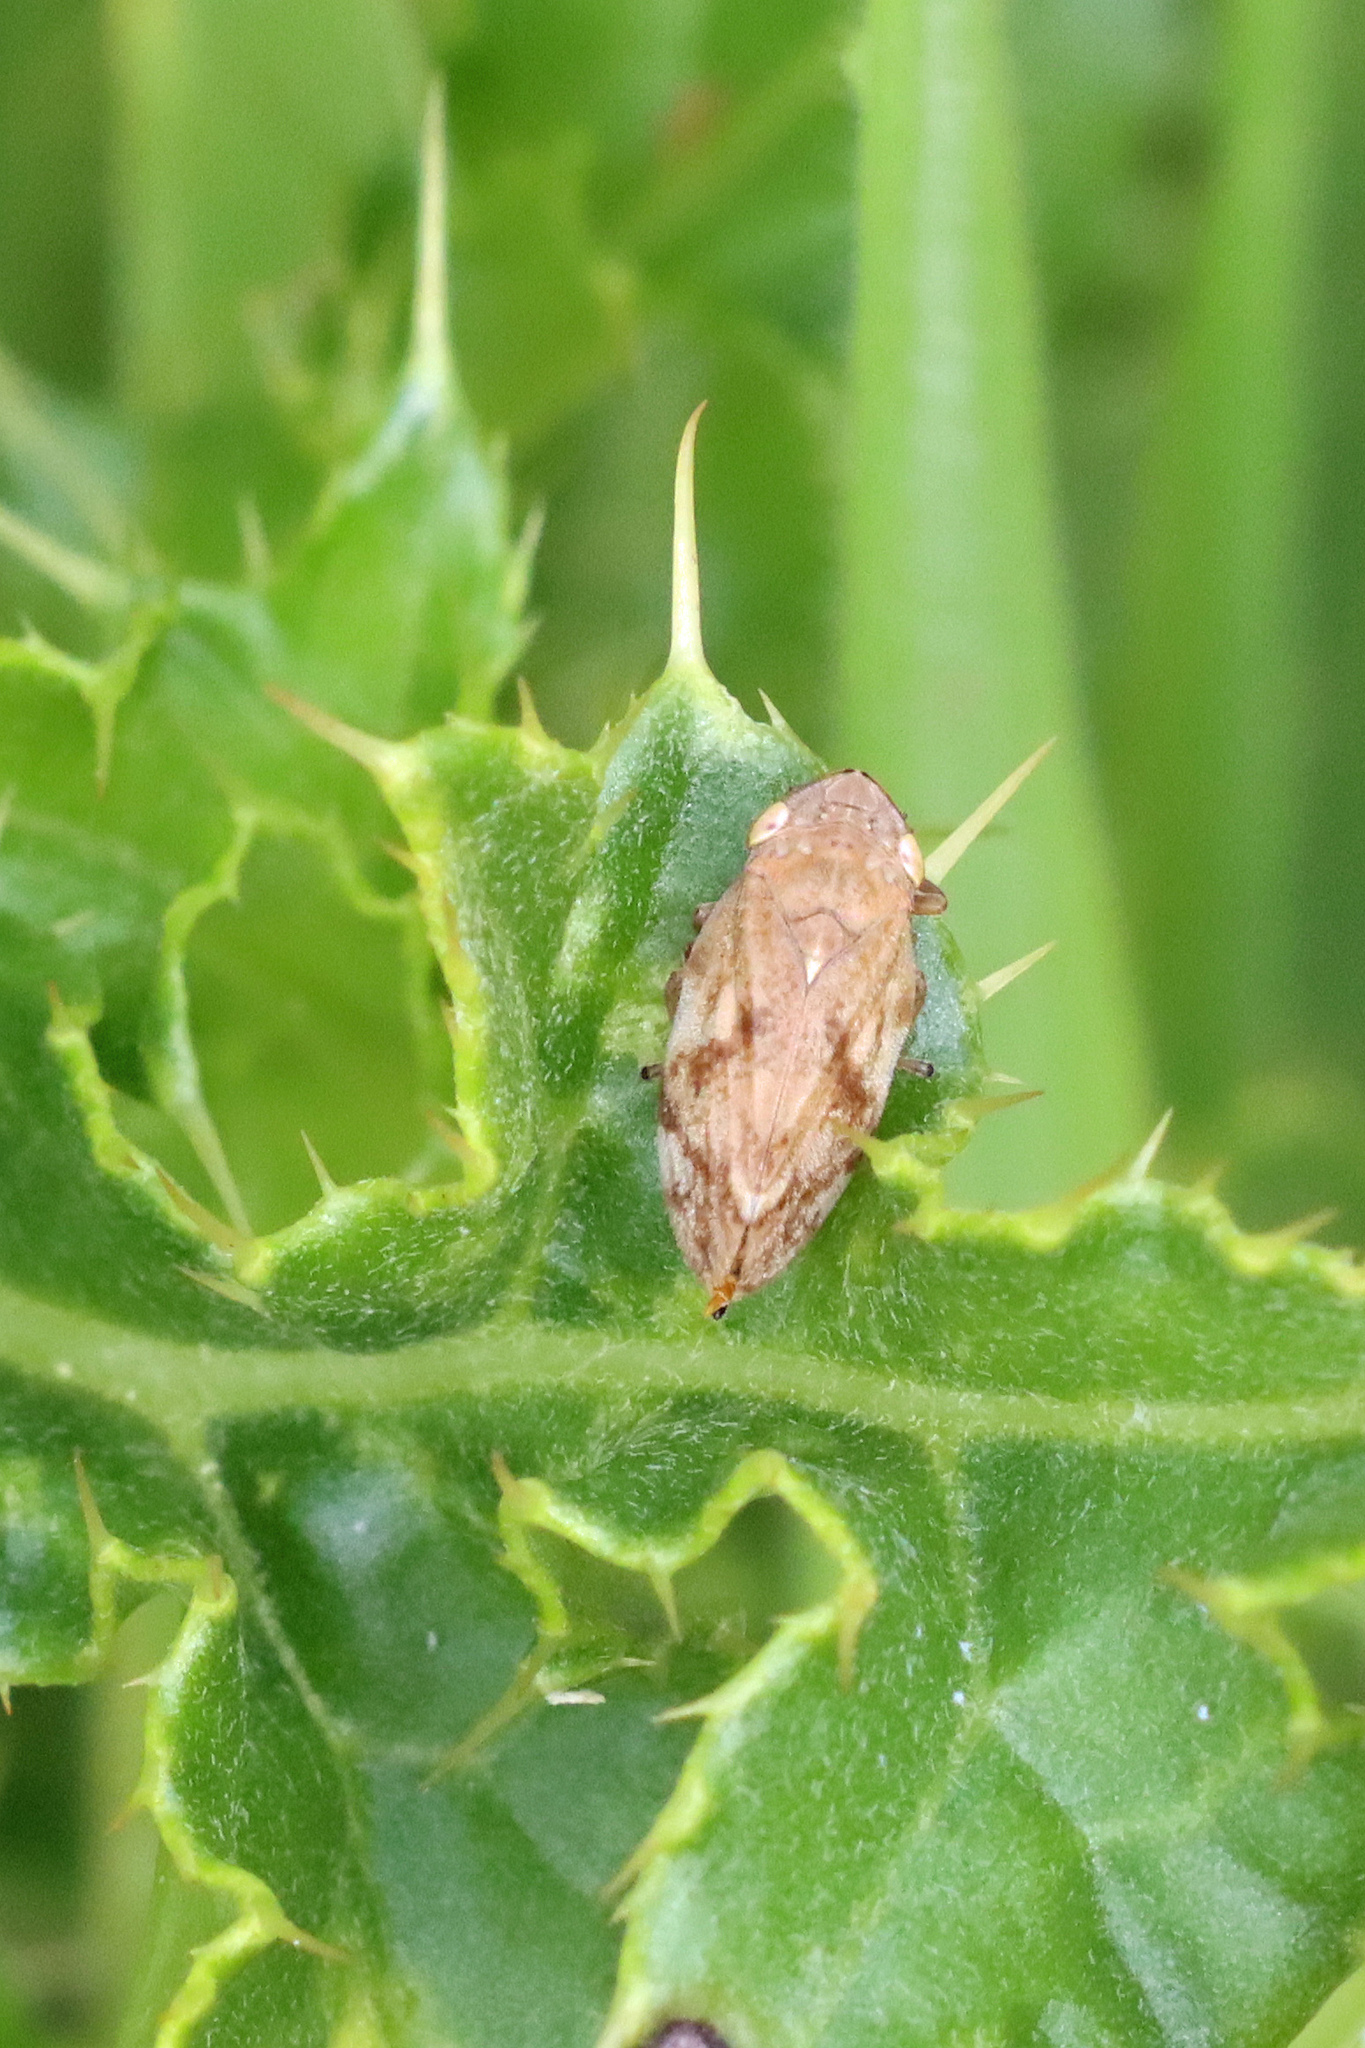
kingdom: Animalia
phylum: Arthropoda
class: Insecta
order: Hemiptera
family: Aphrophoridae
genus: Philaenus
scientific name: Philaenus spumarius
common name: Meadow spittlebug
